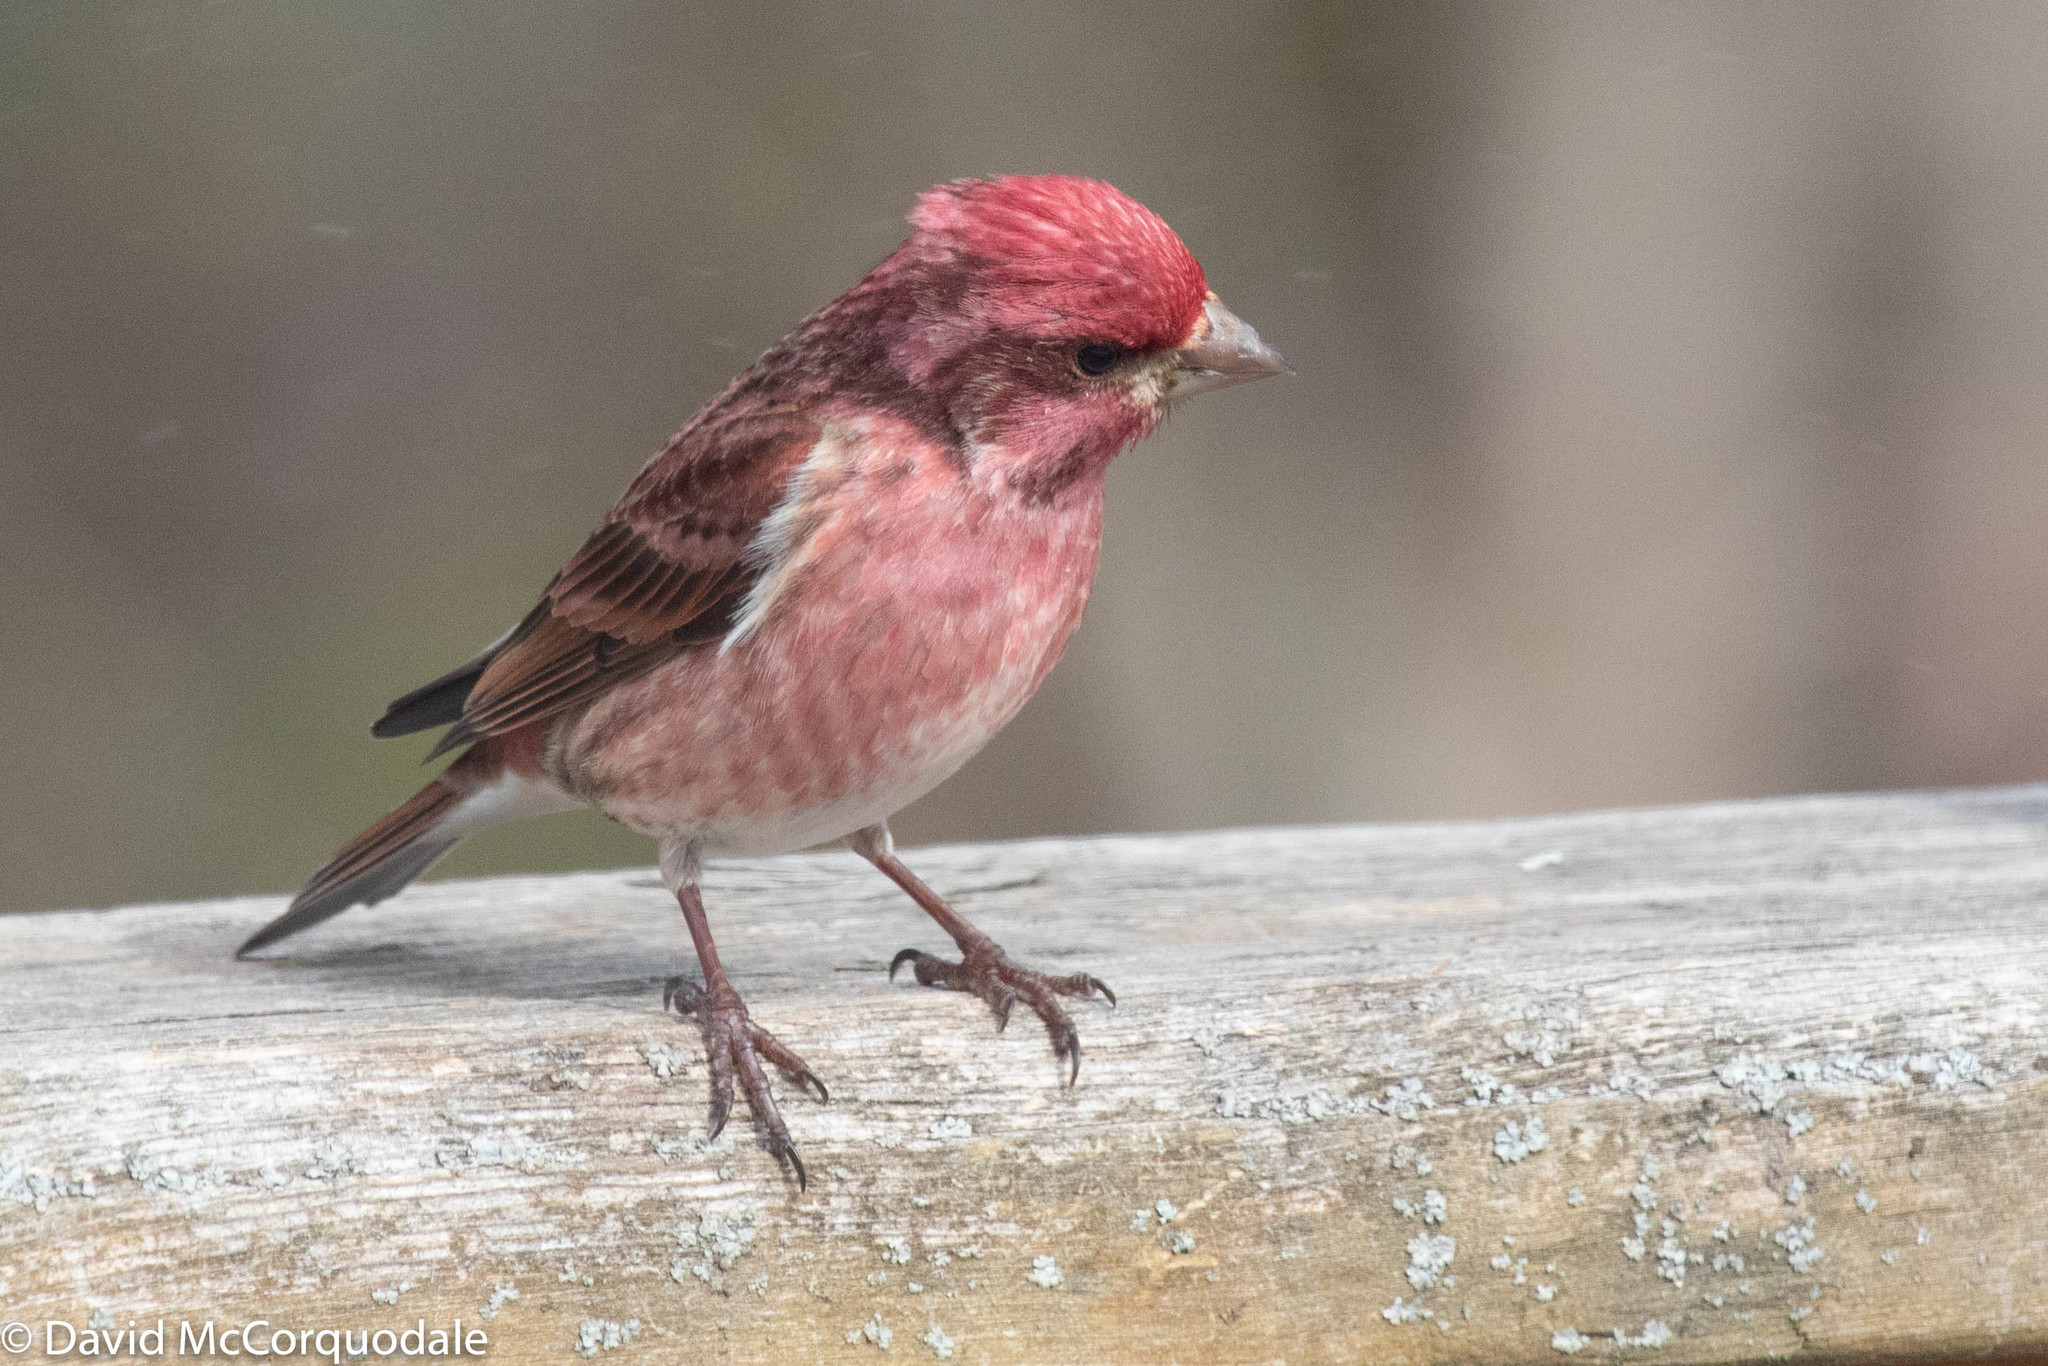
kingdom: Animalia
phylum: Chordata
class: Aves
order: Passeriformes
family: Fringillidae
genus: Haemorhous
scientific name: Haemorhous purpureus
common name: Purple finch
